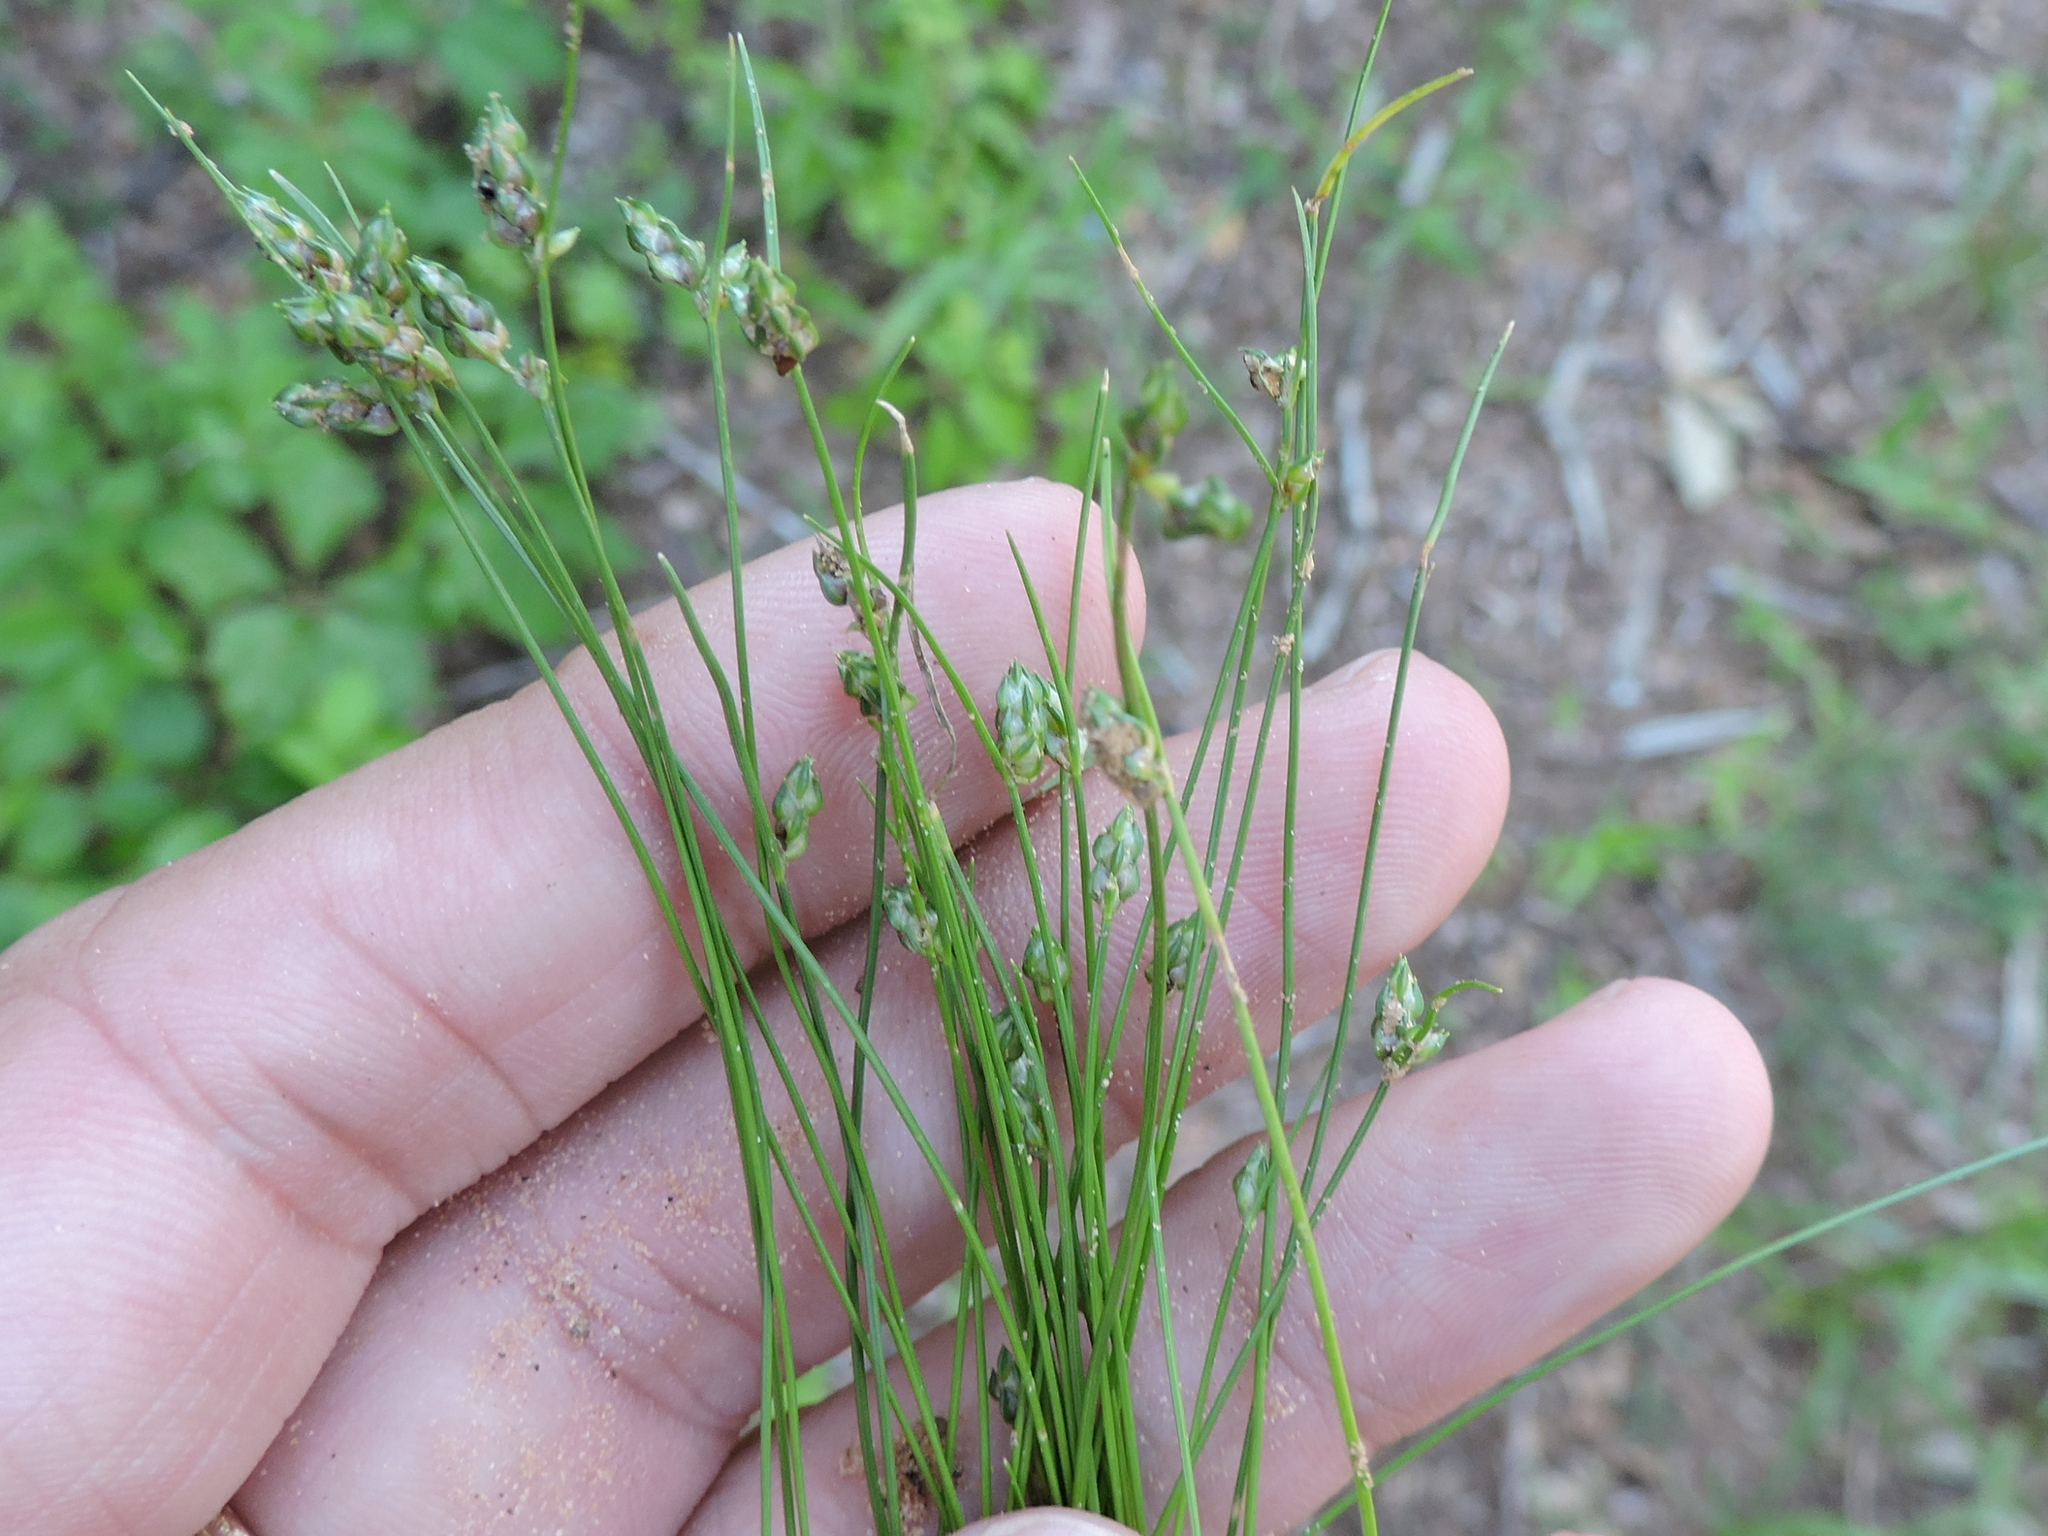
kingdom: Plantae
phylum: Tracheophyta
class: Liliopsida
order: Poales
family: Cyperaceae
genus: Isolepis
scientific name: Isolepis carinata
